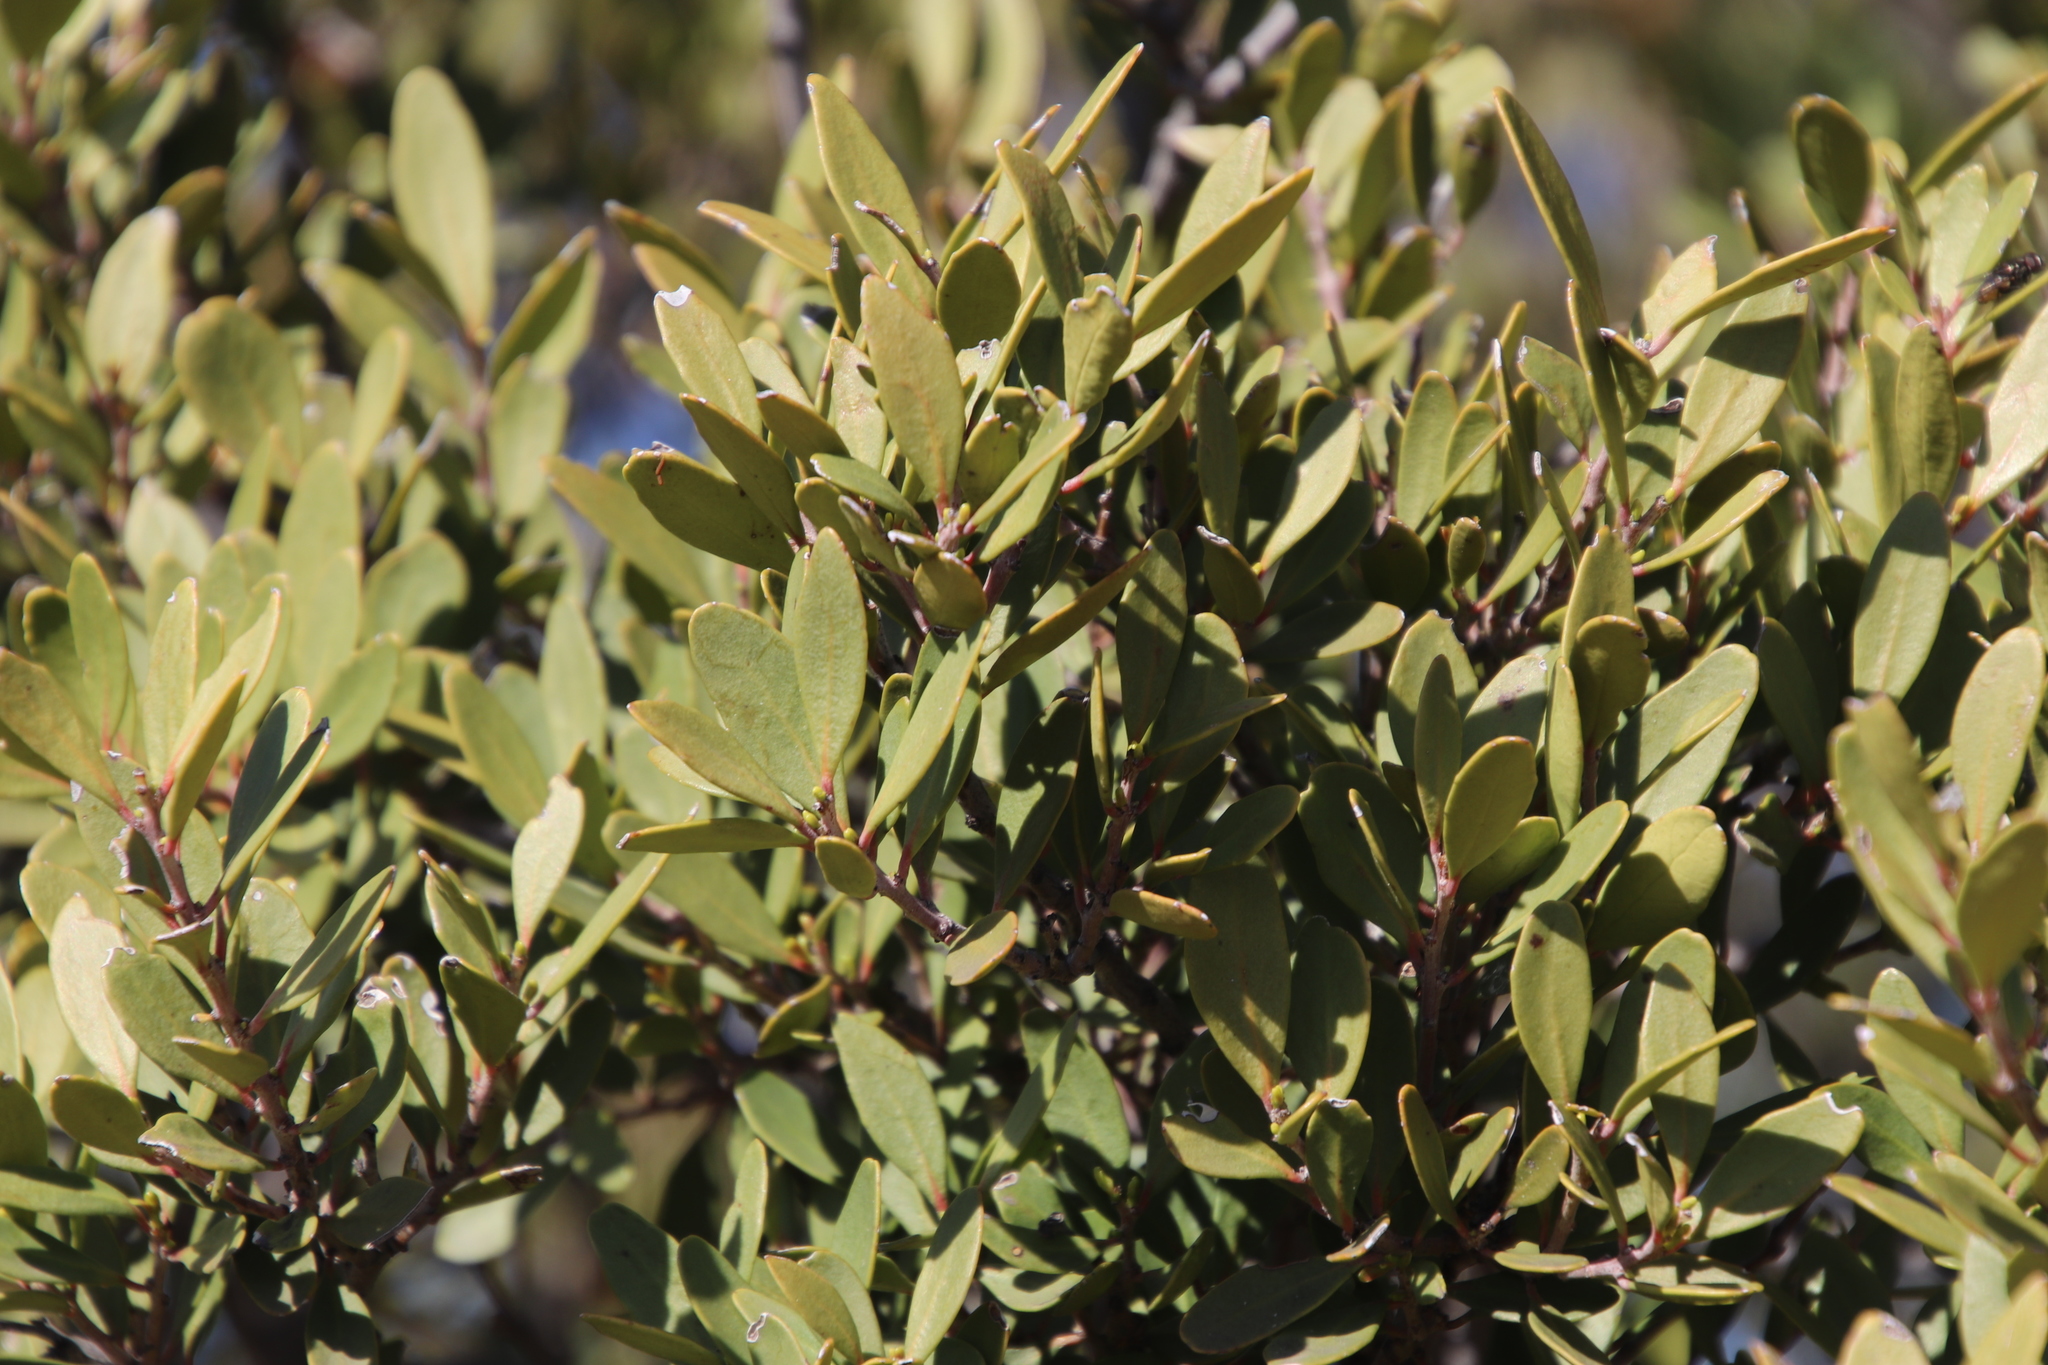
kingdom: Plantae
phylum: Tracheophyta
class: Magnoliopsida
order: Celastrales
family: Celastraceae
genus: Gymnosporia
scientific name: Gymnosporia laurina
